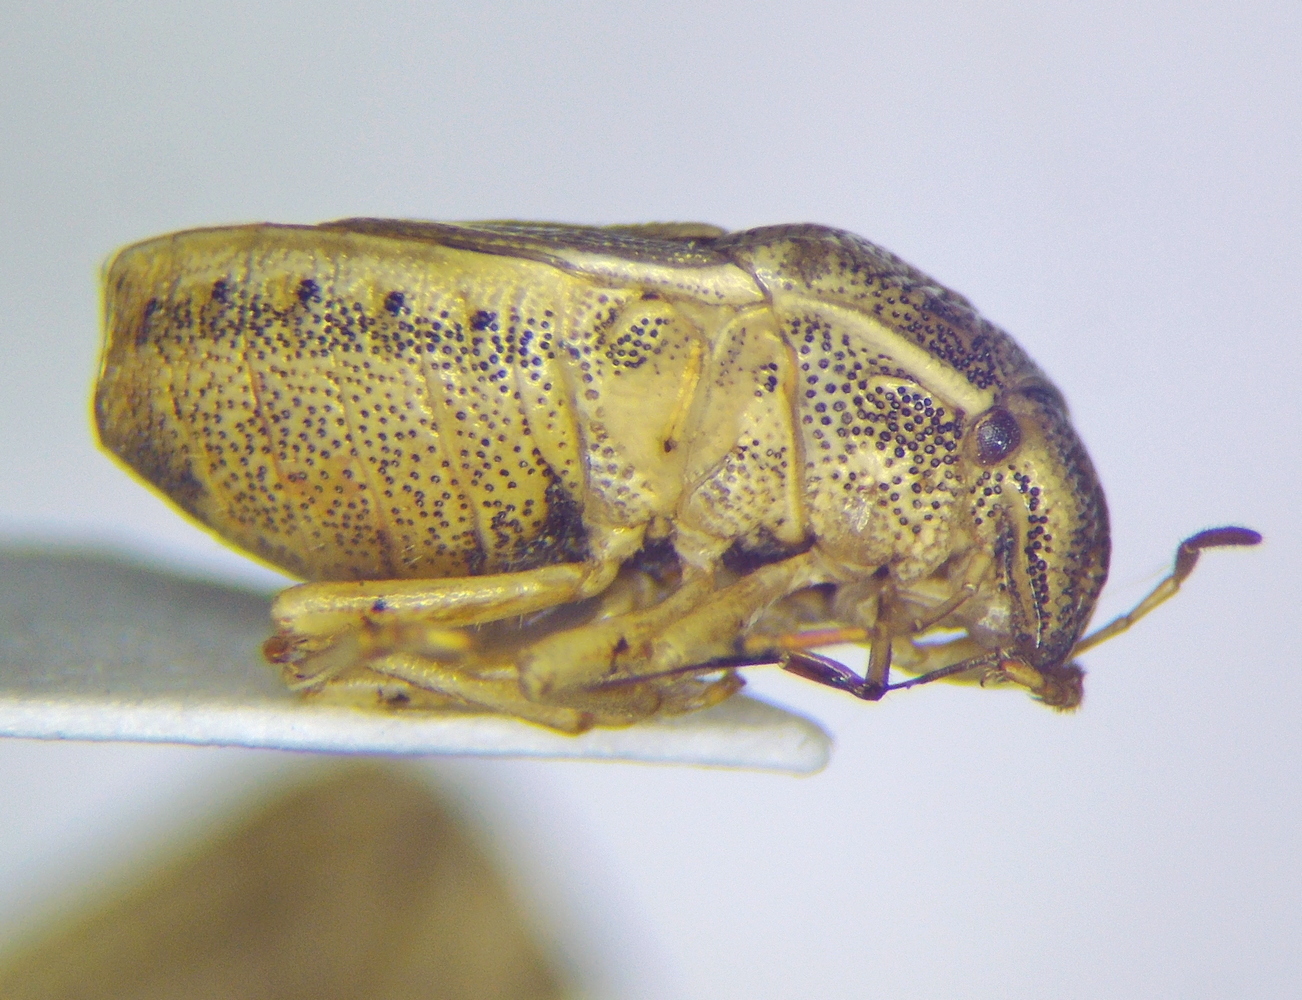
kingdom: Animalia
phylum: Arthropoda
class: Insecta
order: Hemiptera
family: Pentatomidae
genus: Neottiglossa
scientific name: Neottiglossa leporina
